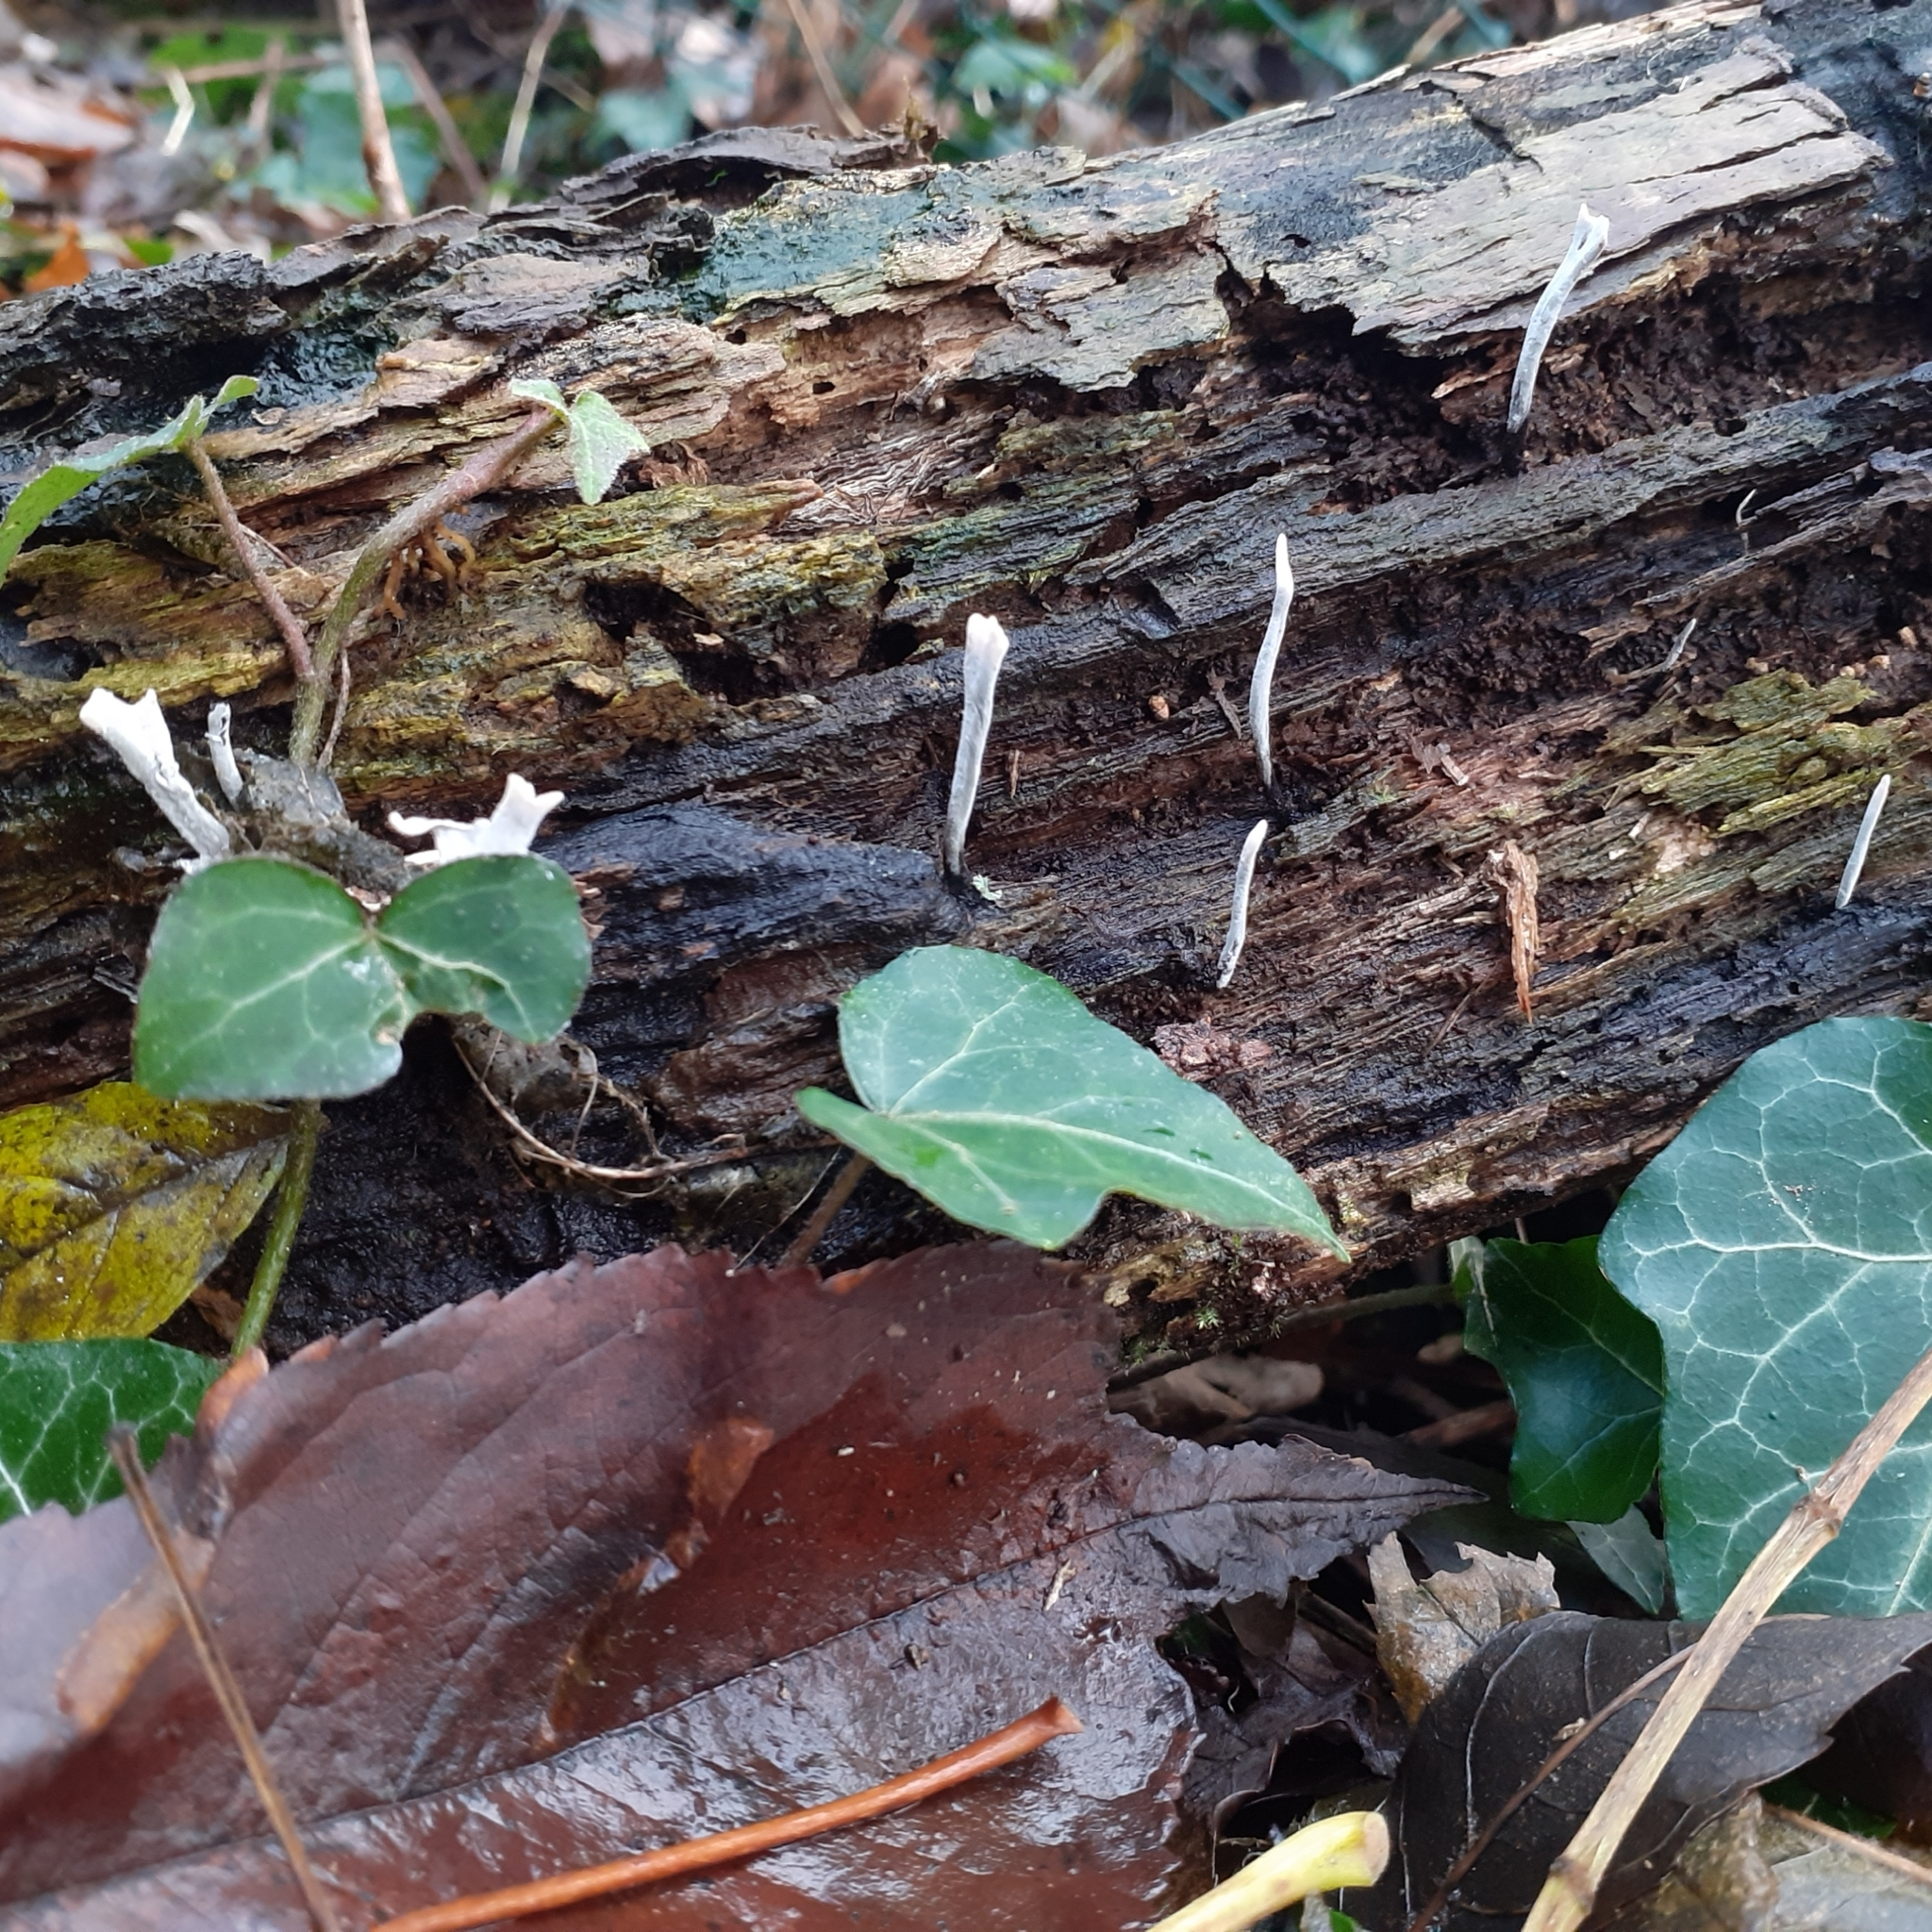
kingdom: Fungi
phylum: Ascomycota
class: Sordariomycetes
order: Xylariales
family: Xylariaceae
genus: Xylaria
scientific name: Xylaria hypoxylon
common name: Candle-snuff fungus
